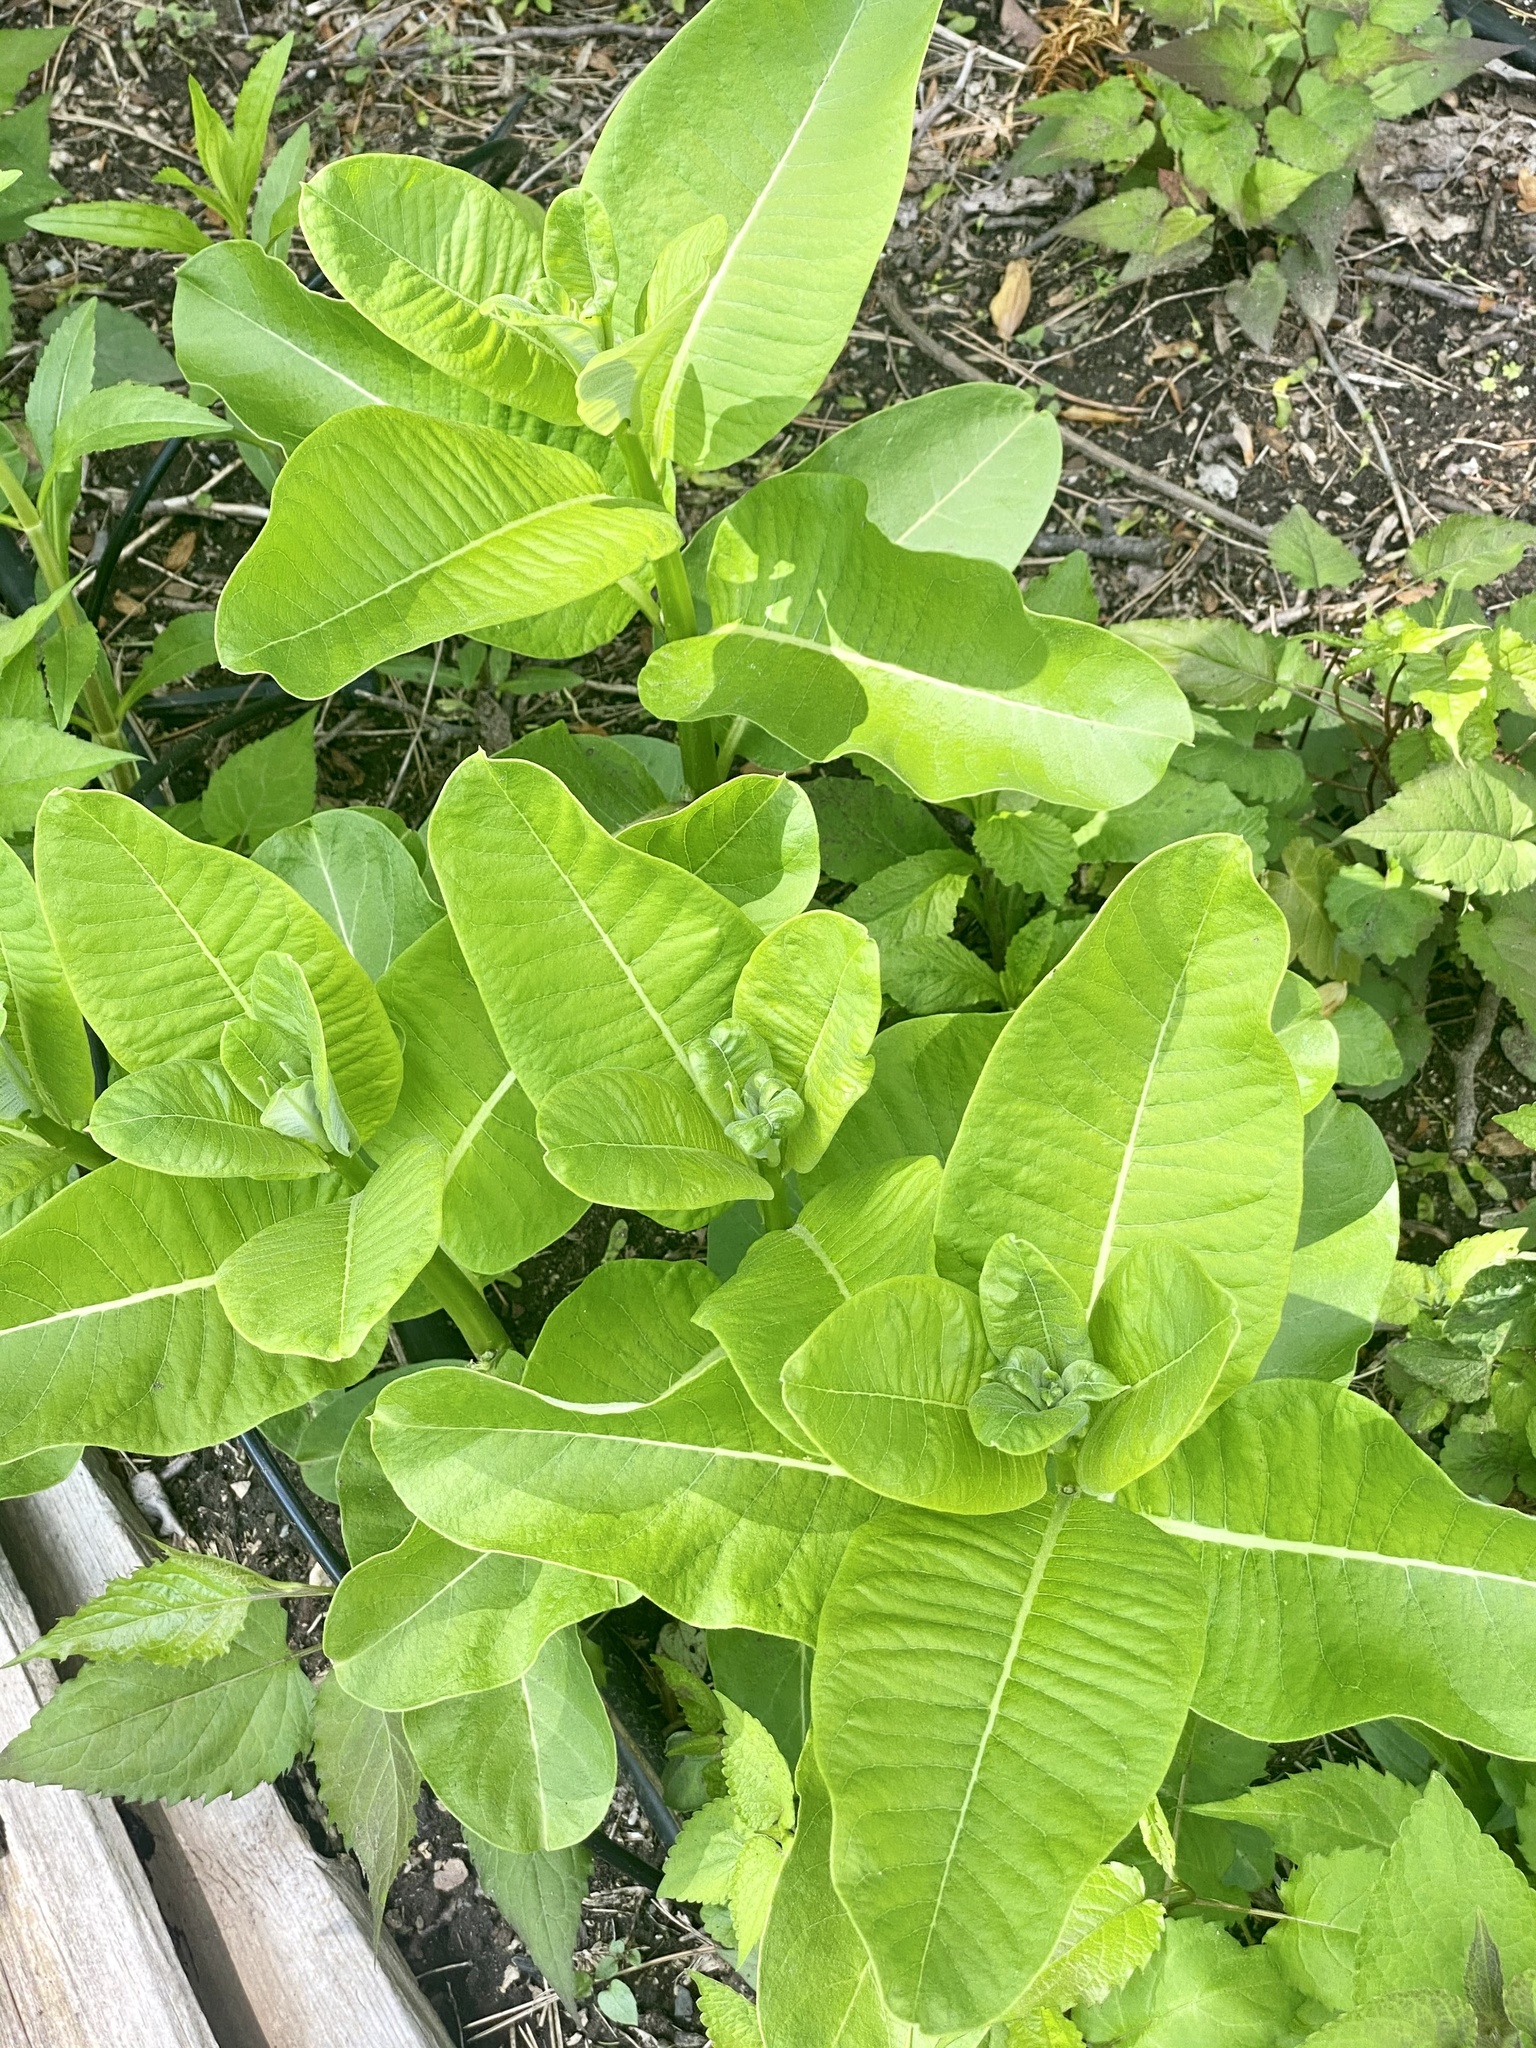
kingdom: Plantae
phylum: Tracheophyta
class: Magnoliopsida
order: Gentianales
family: Apocynaceae
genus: Asclepias
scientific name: Asclepias syriaca
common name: Common milkweed
